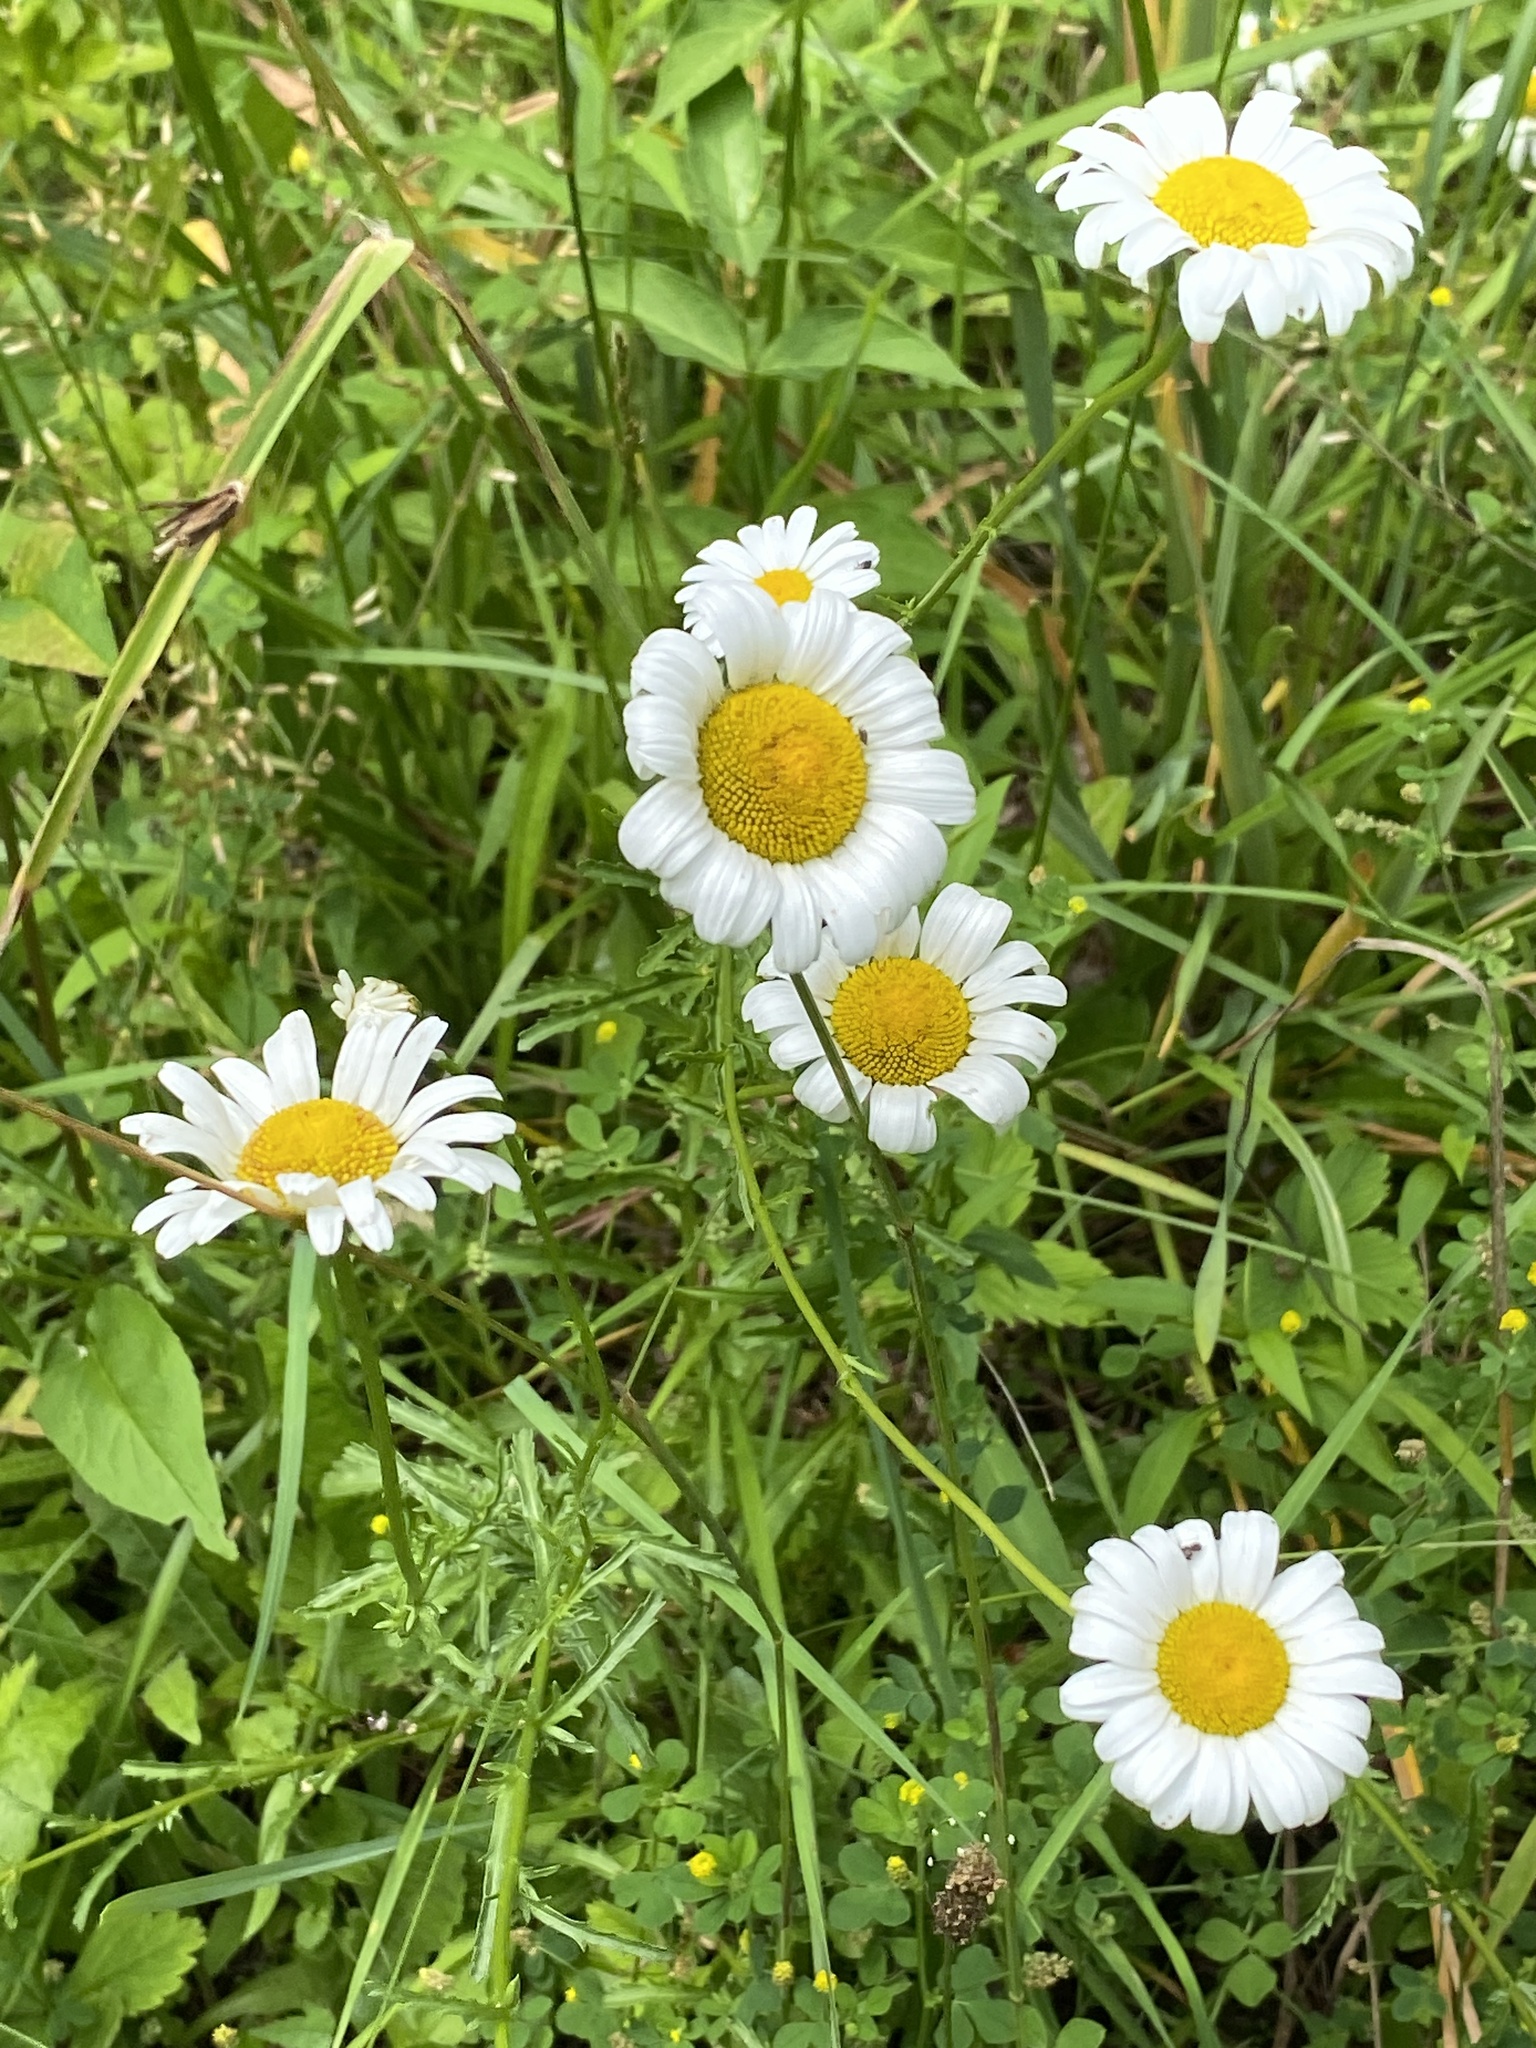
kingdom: Plantae
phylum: Tracheophyta
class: Magnoliopsida
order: Asterales
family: Asteraceae
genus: Leucanthemum
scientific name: Leucanthemum vulgare
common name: Oxeye daisy
